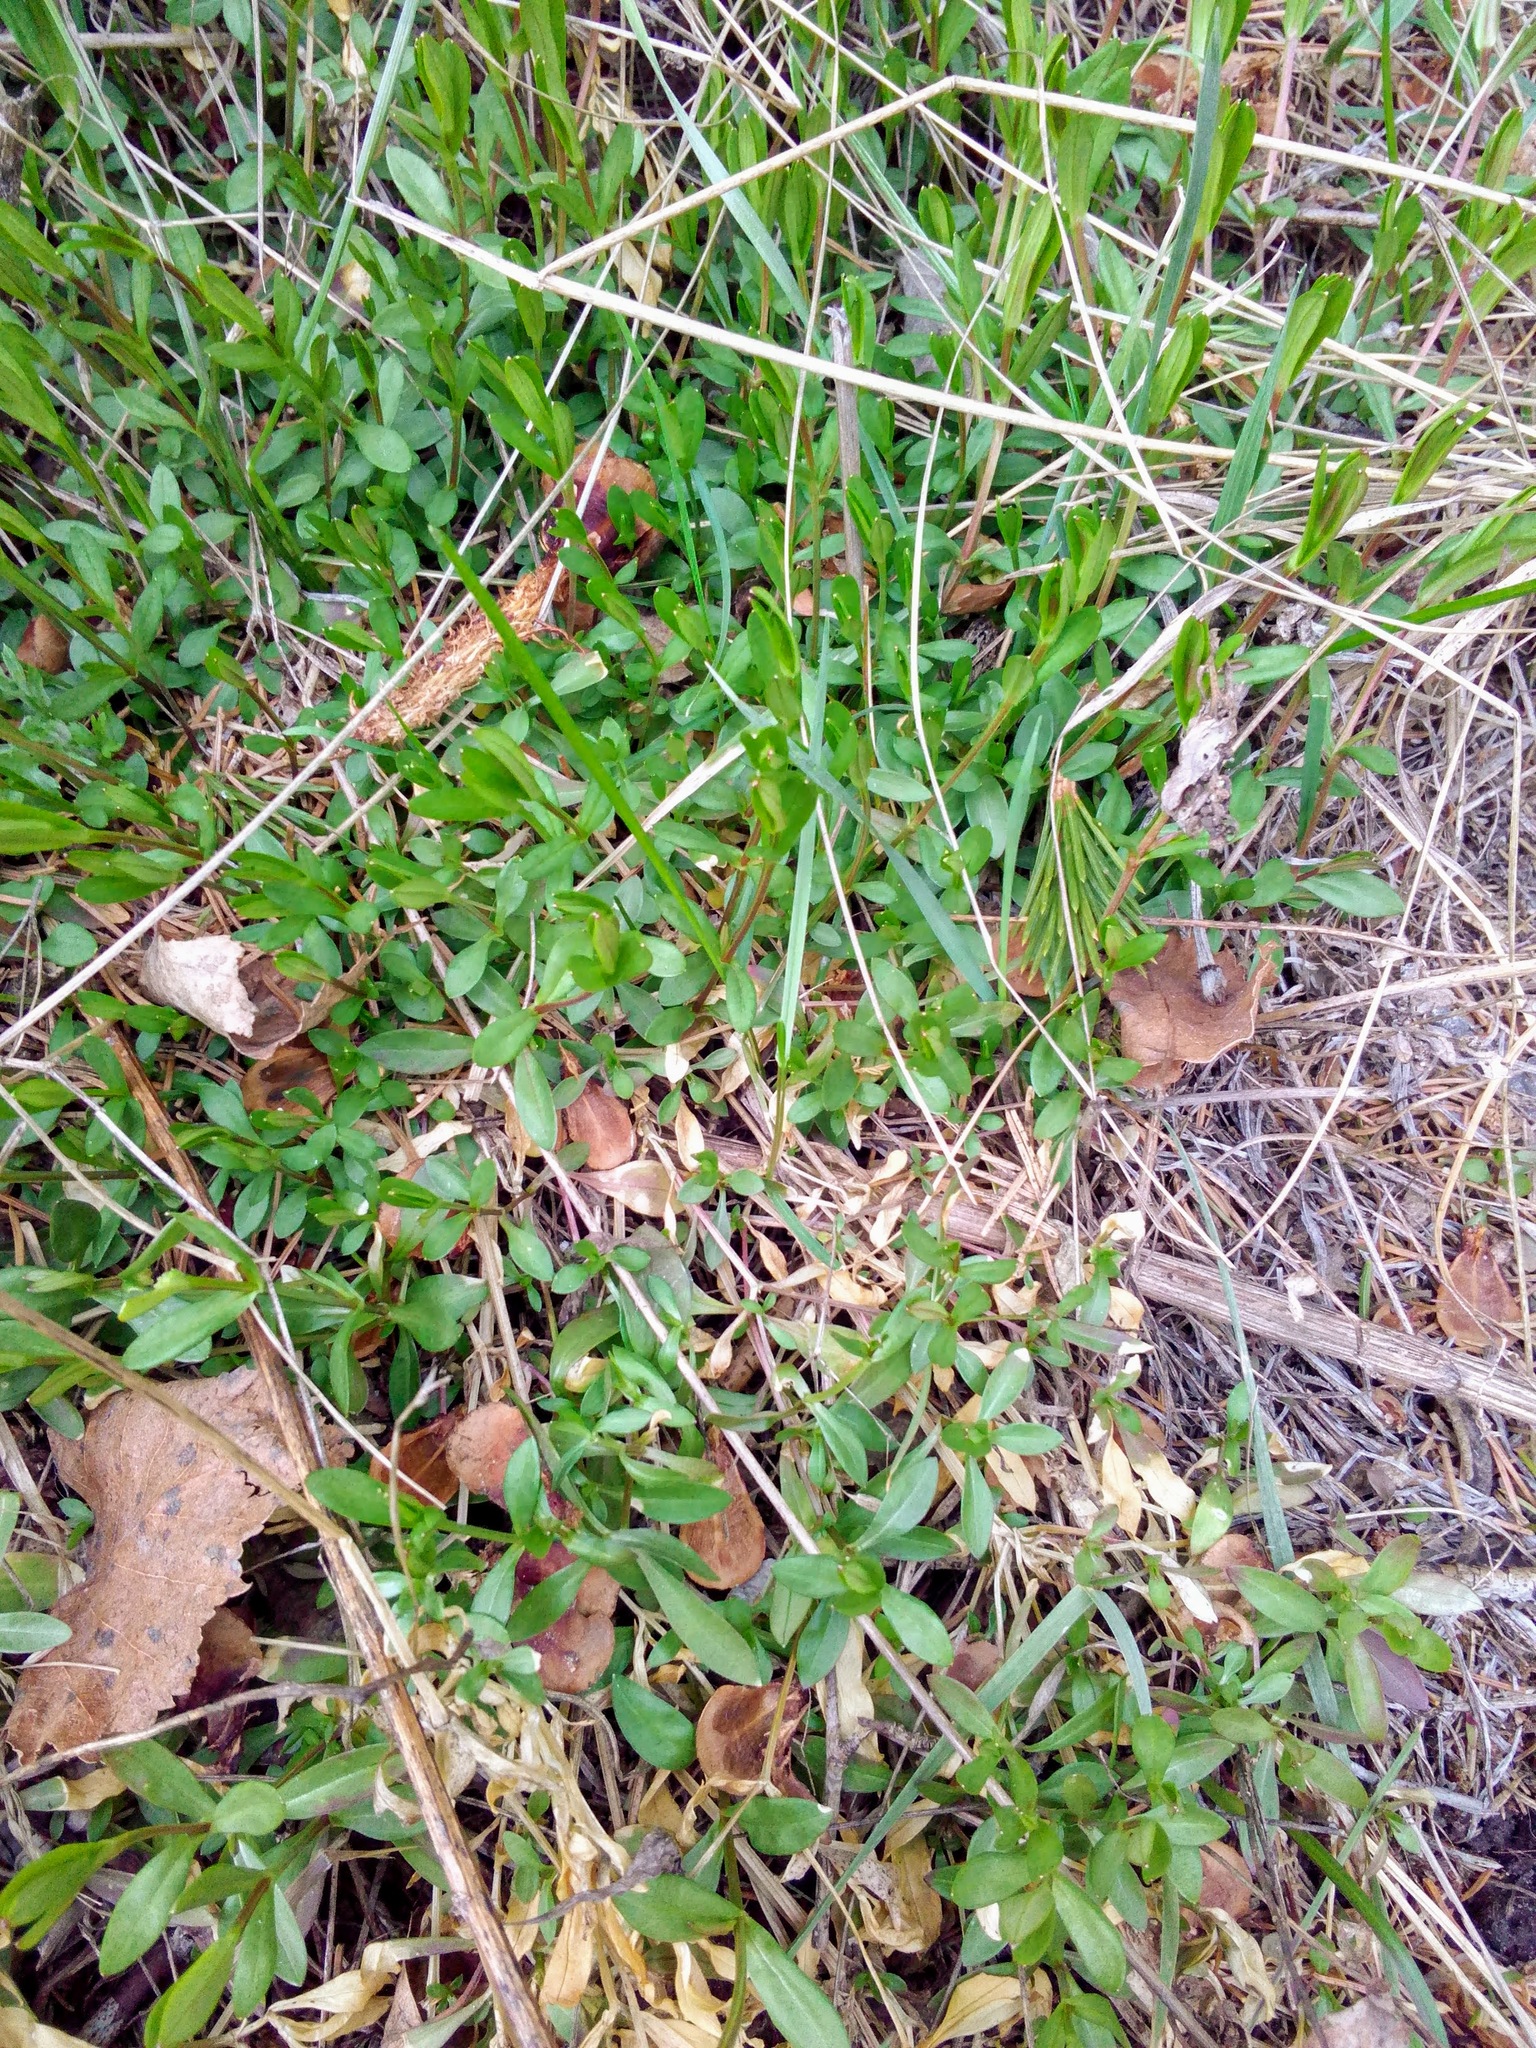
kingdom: Plantae
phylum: Tracheophyta
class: Magnoliopsida
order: Caryophyllales
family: Caryophyllaceae
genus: Stellaria
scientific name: Stellaria graminea
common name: Grass-like starwort
